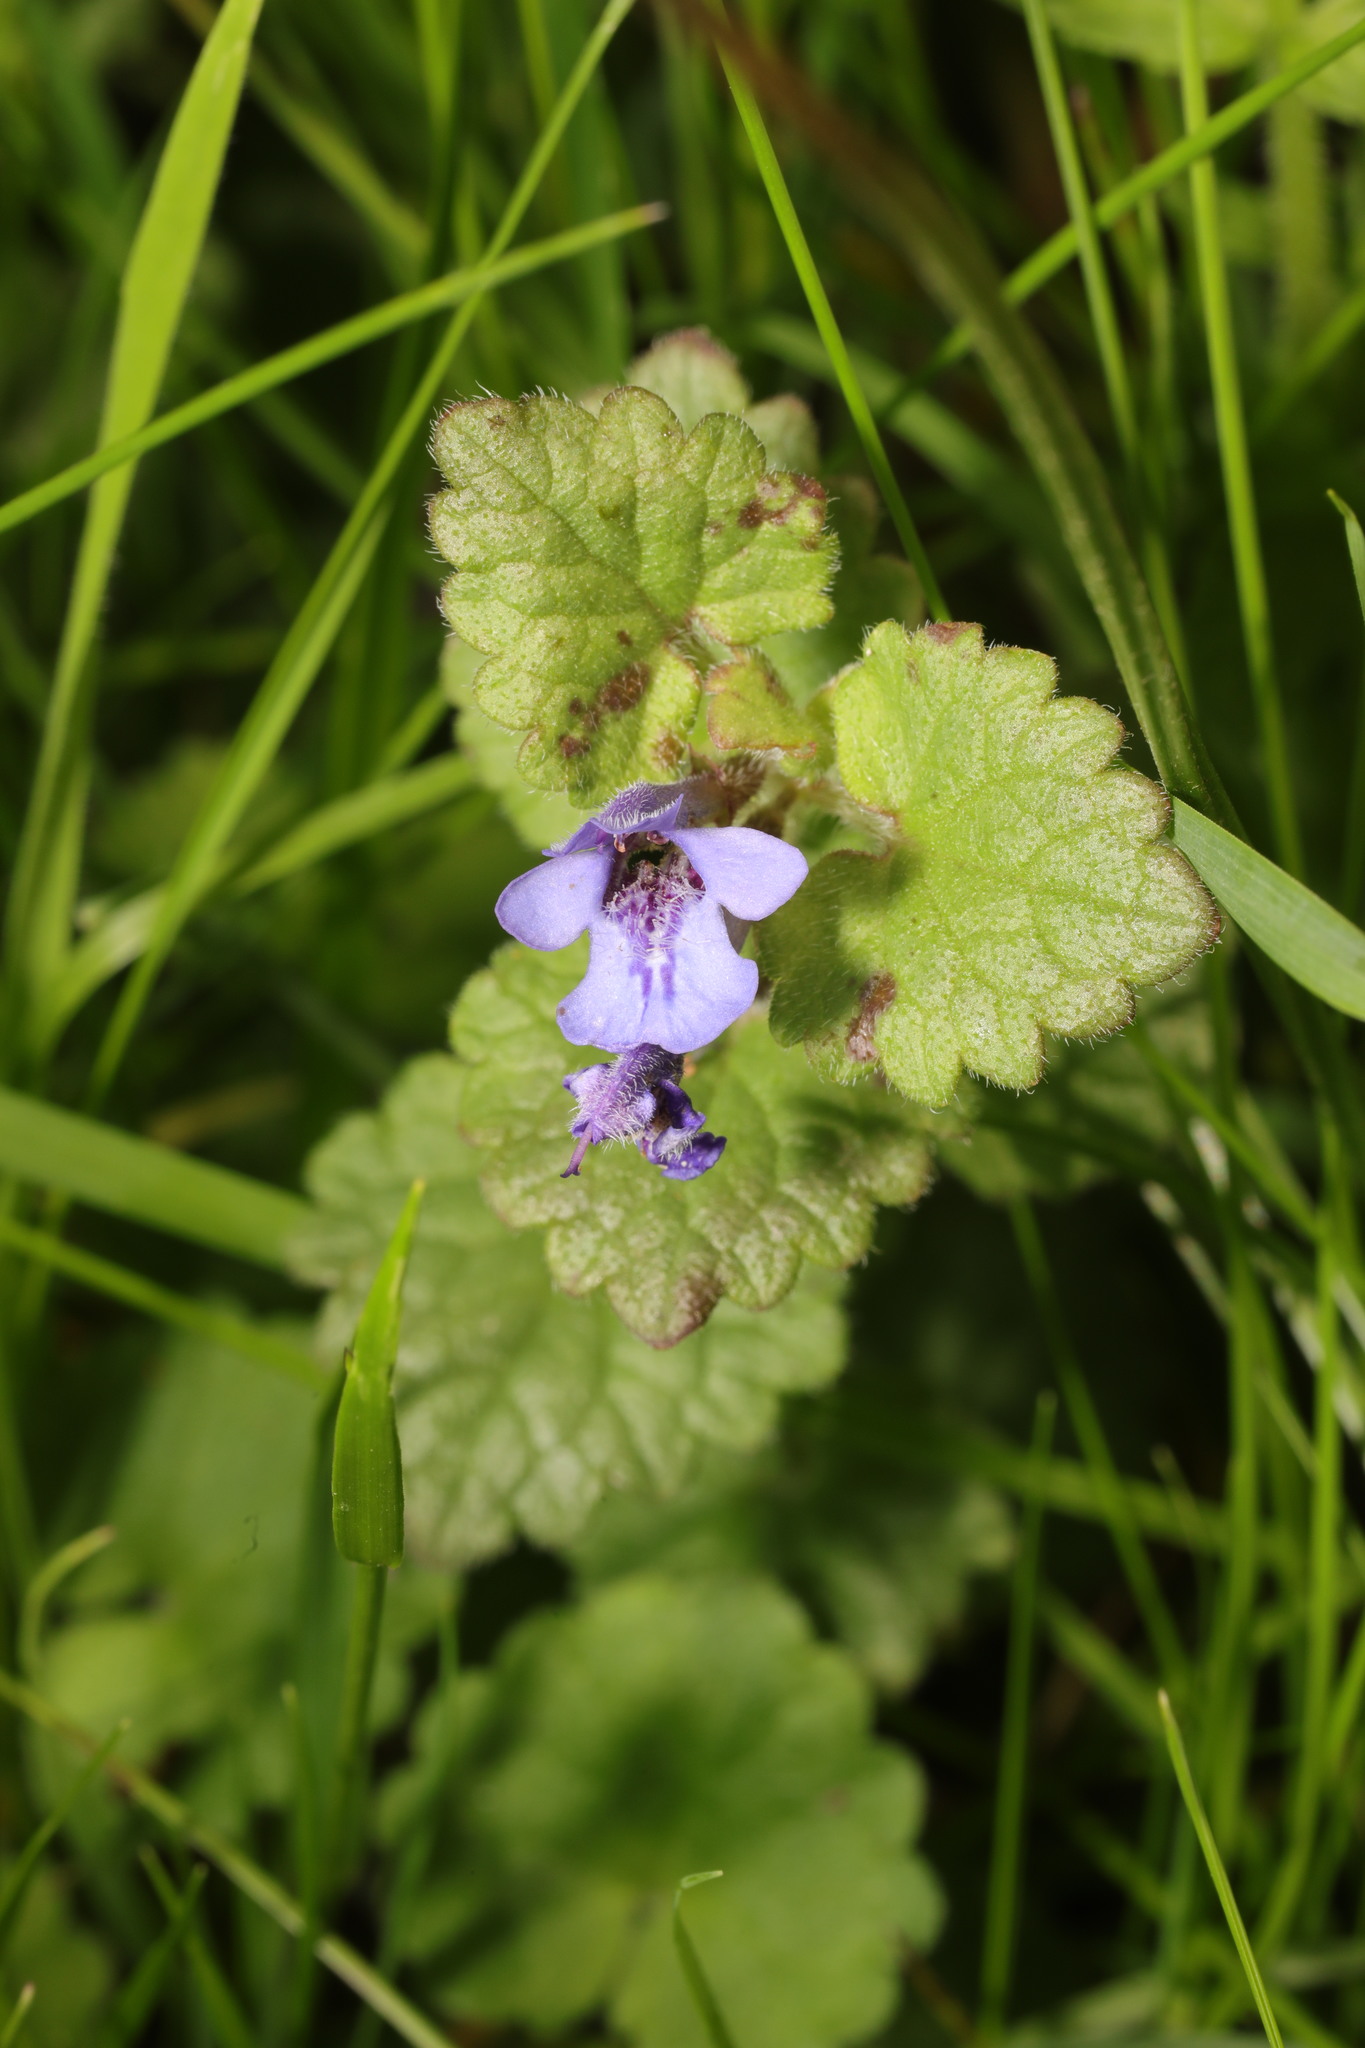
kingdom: Plantae
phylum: Tracheophyta
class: Magnoliopsida
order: Lamiales
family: Lamiaceae
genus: Glechoma
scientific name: Glechoma hederacea
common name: Ground ivy
